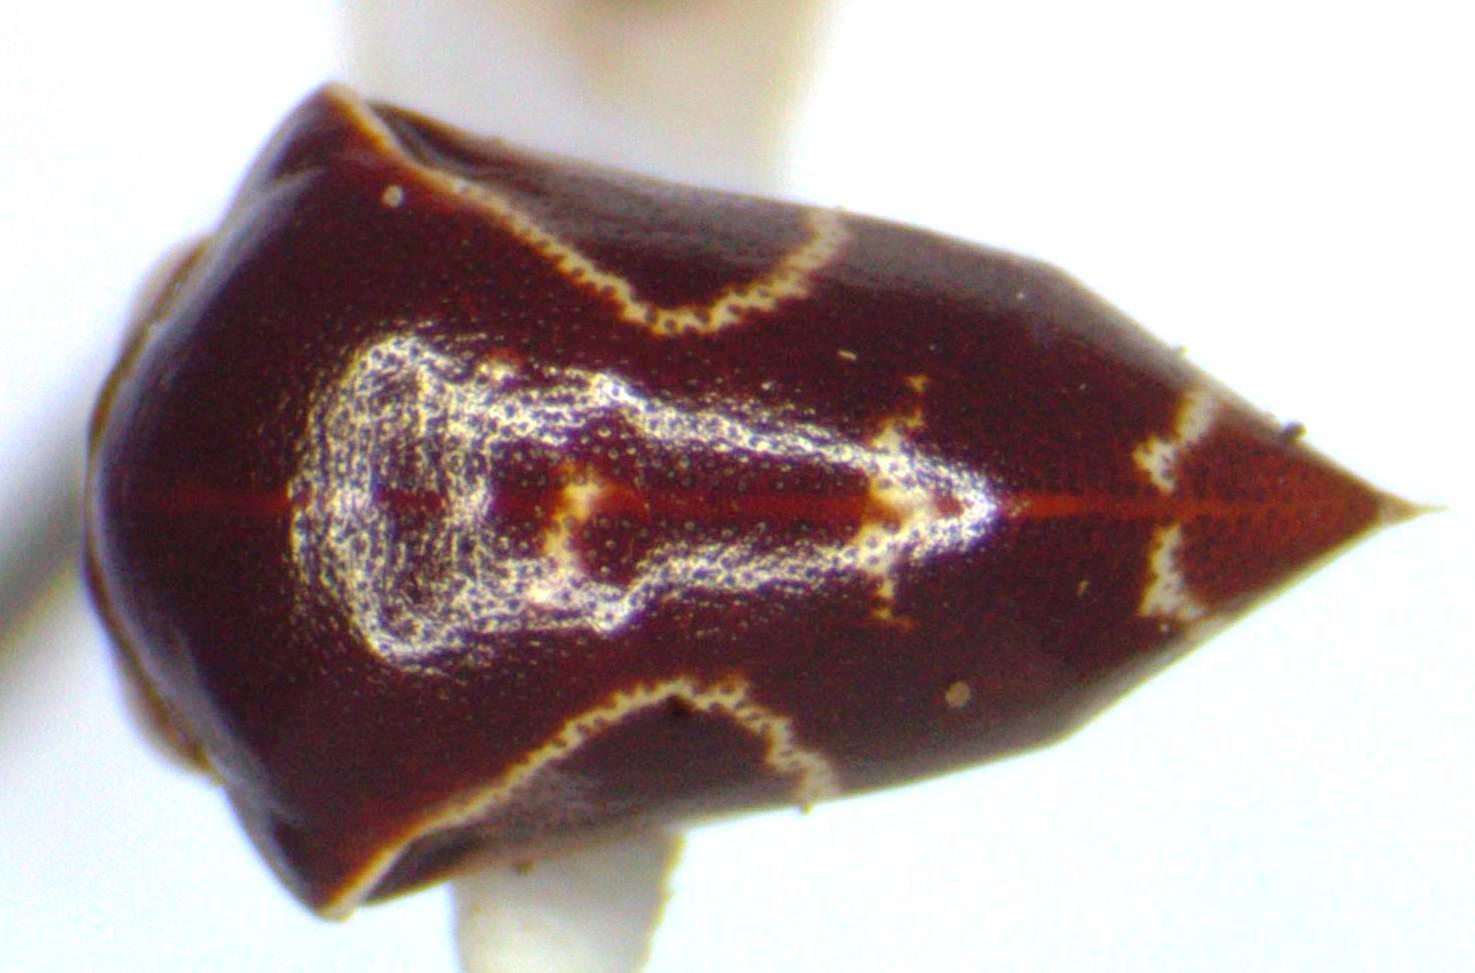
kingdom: Animalia
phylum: Arthropoda
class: Insecta
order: Hemiptera
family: Membracidae
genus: Horiola
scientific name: Horiola picta
